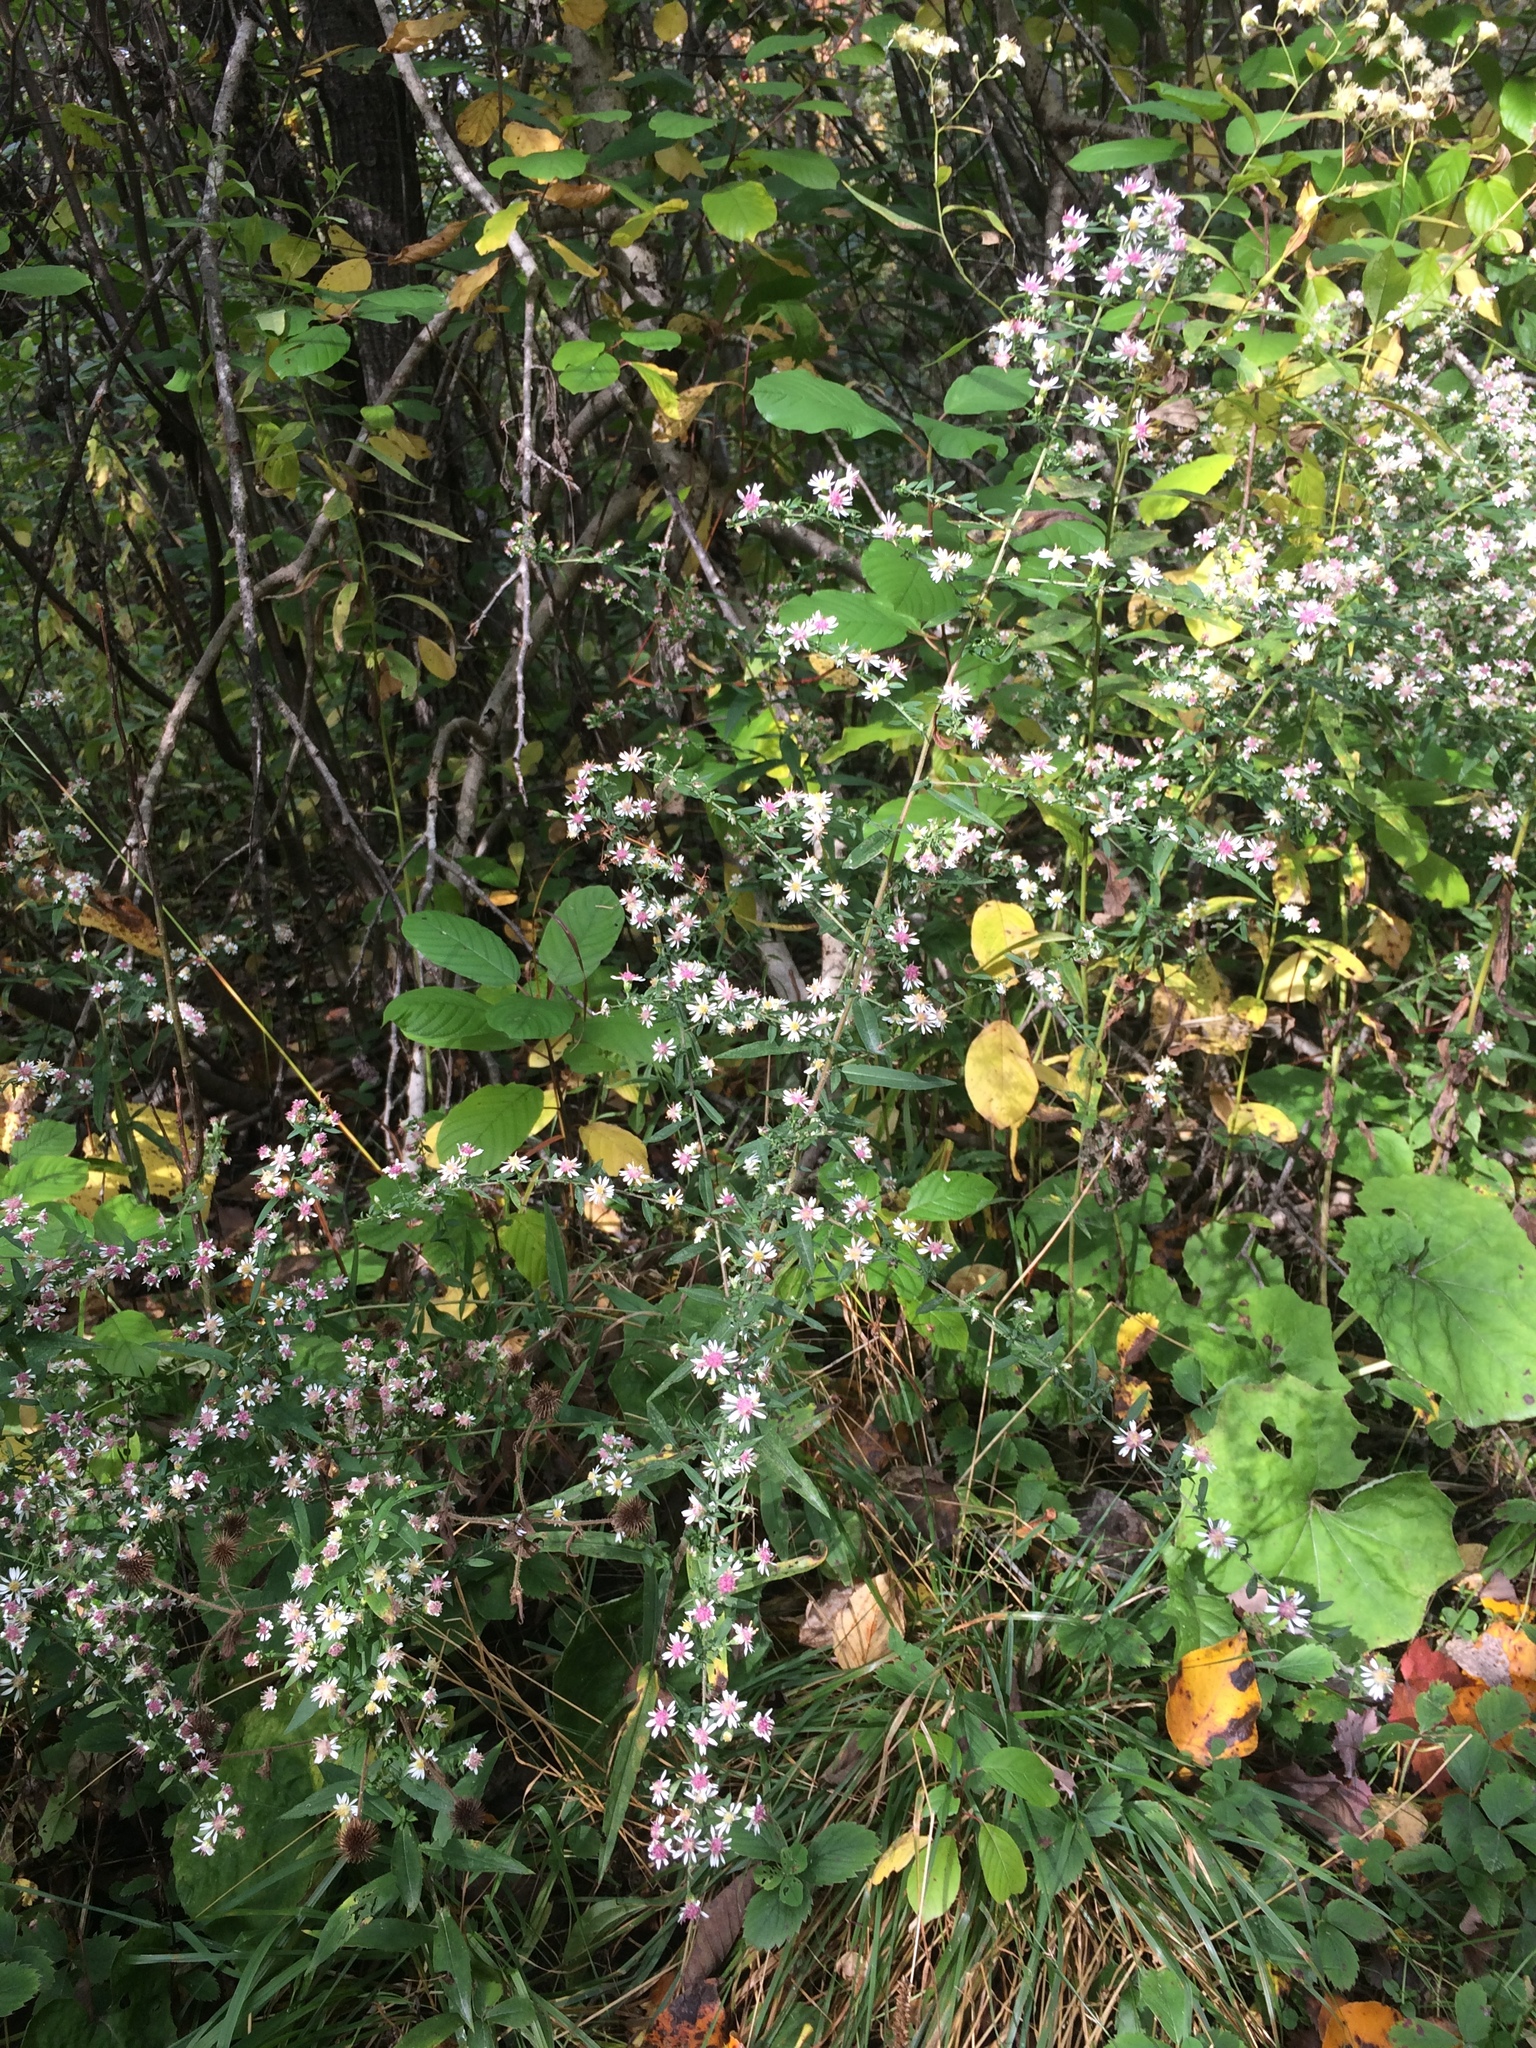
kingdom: Plantae
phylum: Tracheophyta
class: Magnoliopsida
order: Asterales
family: Asteraceae
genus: Symphyotrichum
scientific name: Symphyotrichum lateriflorum
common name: Calico aster
